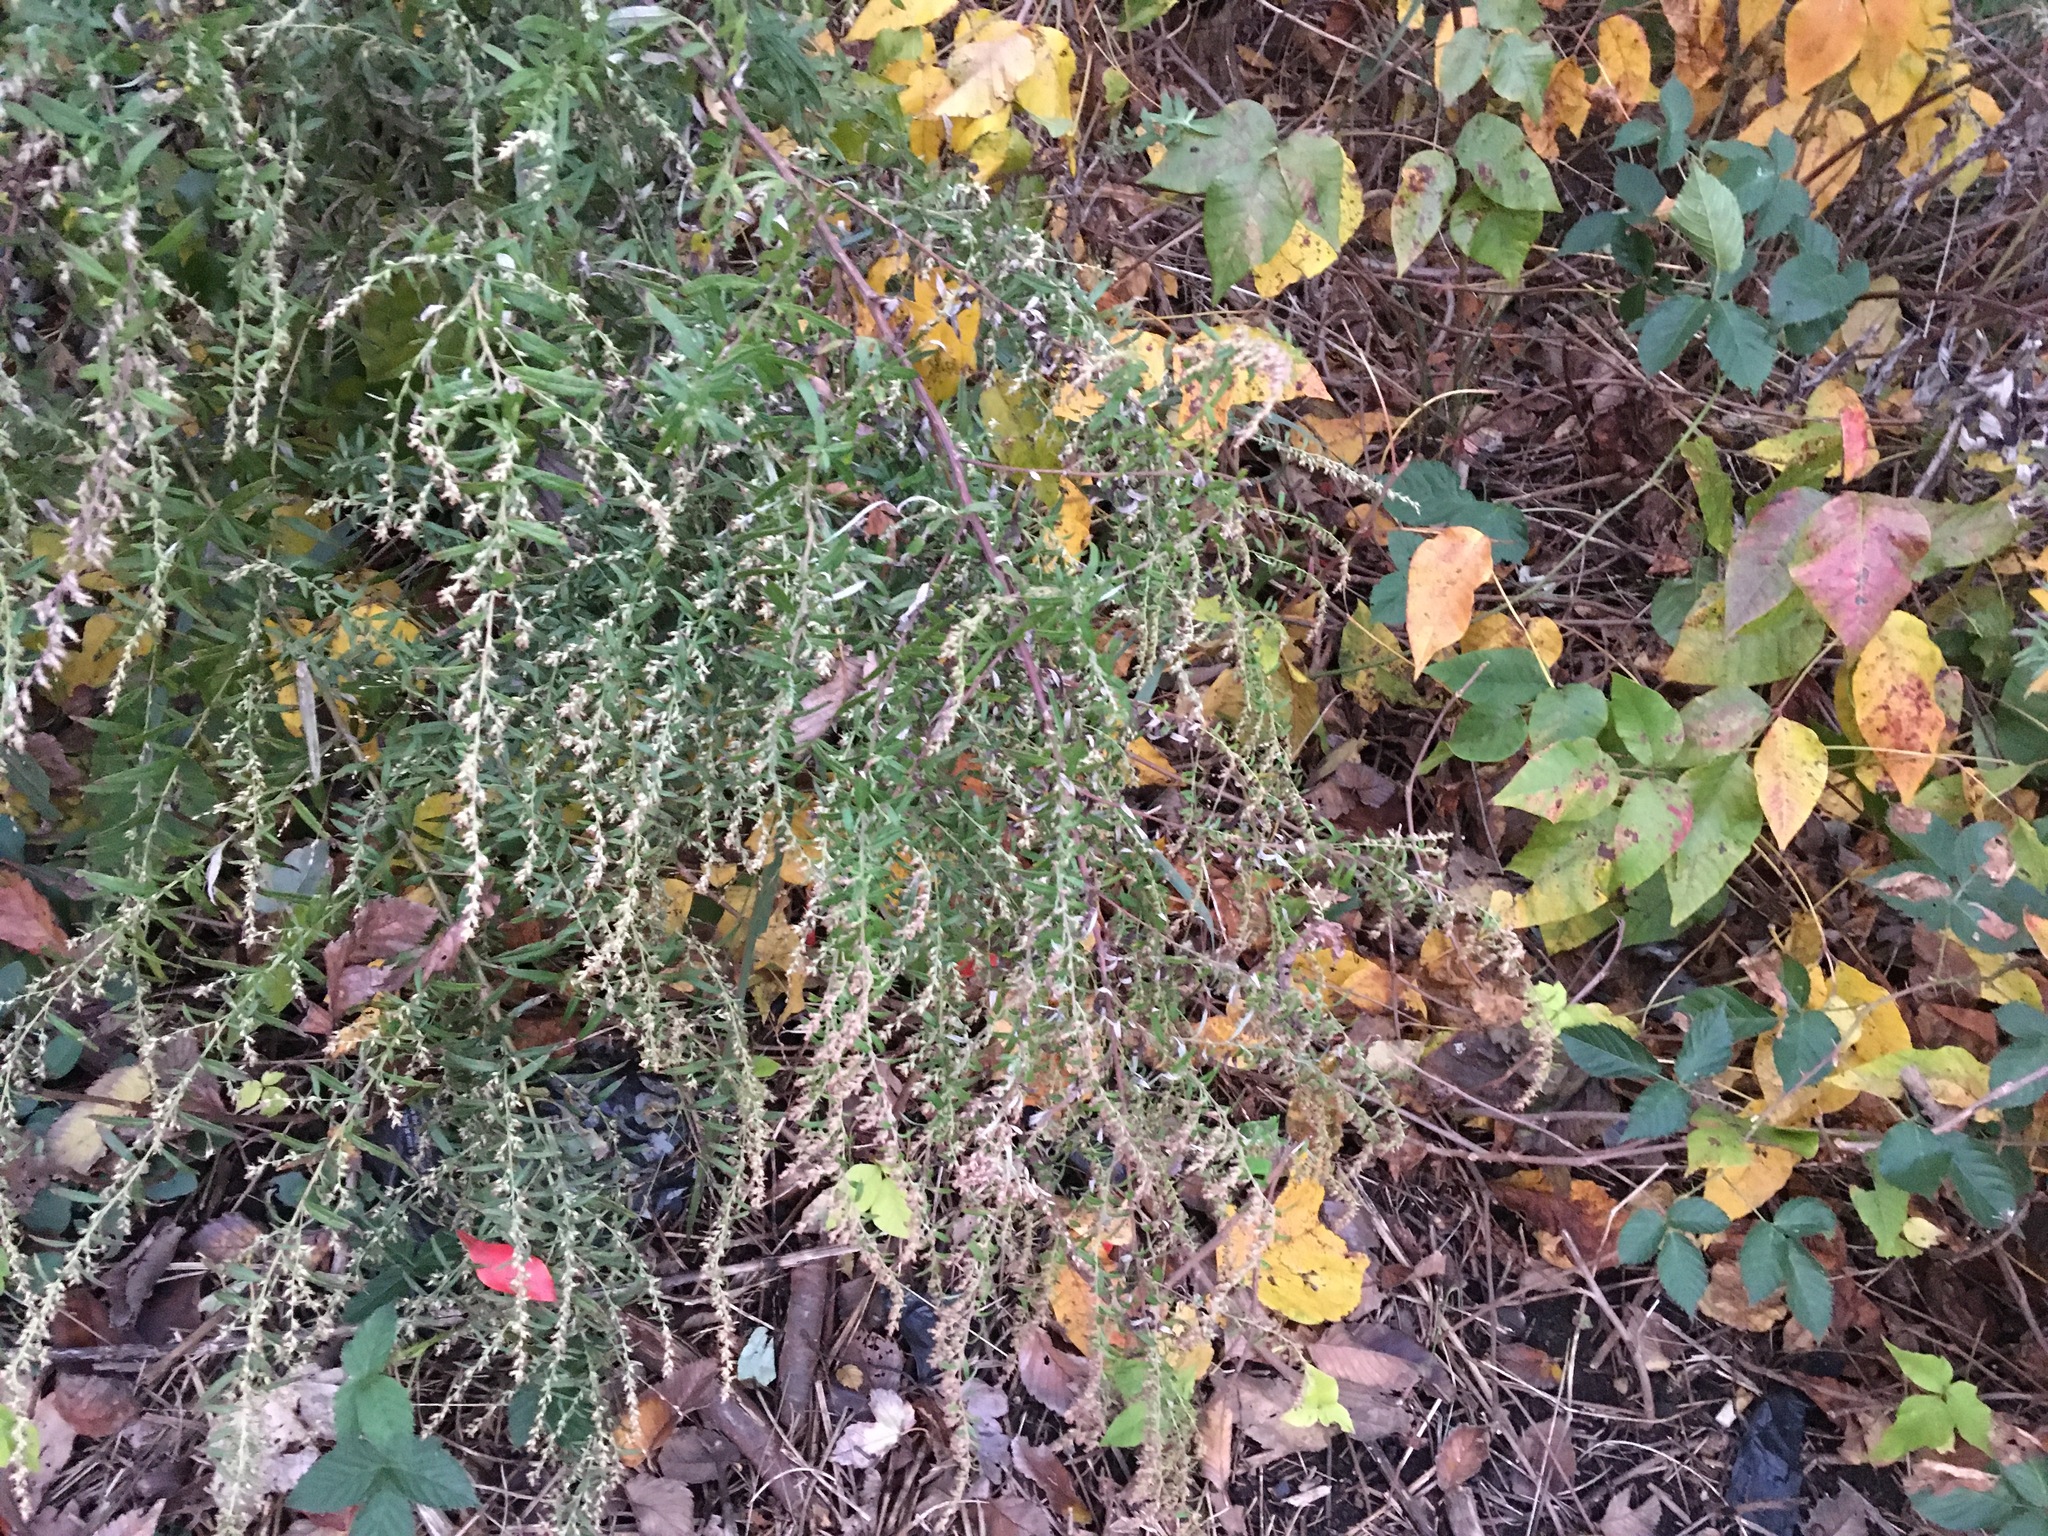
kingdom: Plantae
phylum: Tracheophyta
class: Magnoliopsida
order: Asterales
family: Asteraceae
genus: Artemisia
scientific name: Artemisia vulgaris
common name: Mugwort
